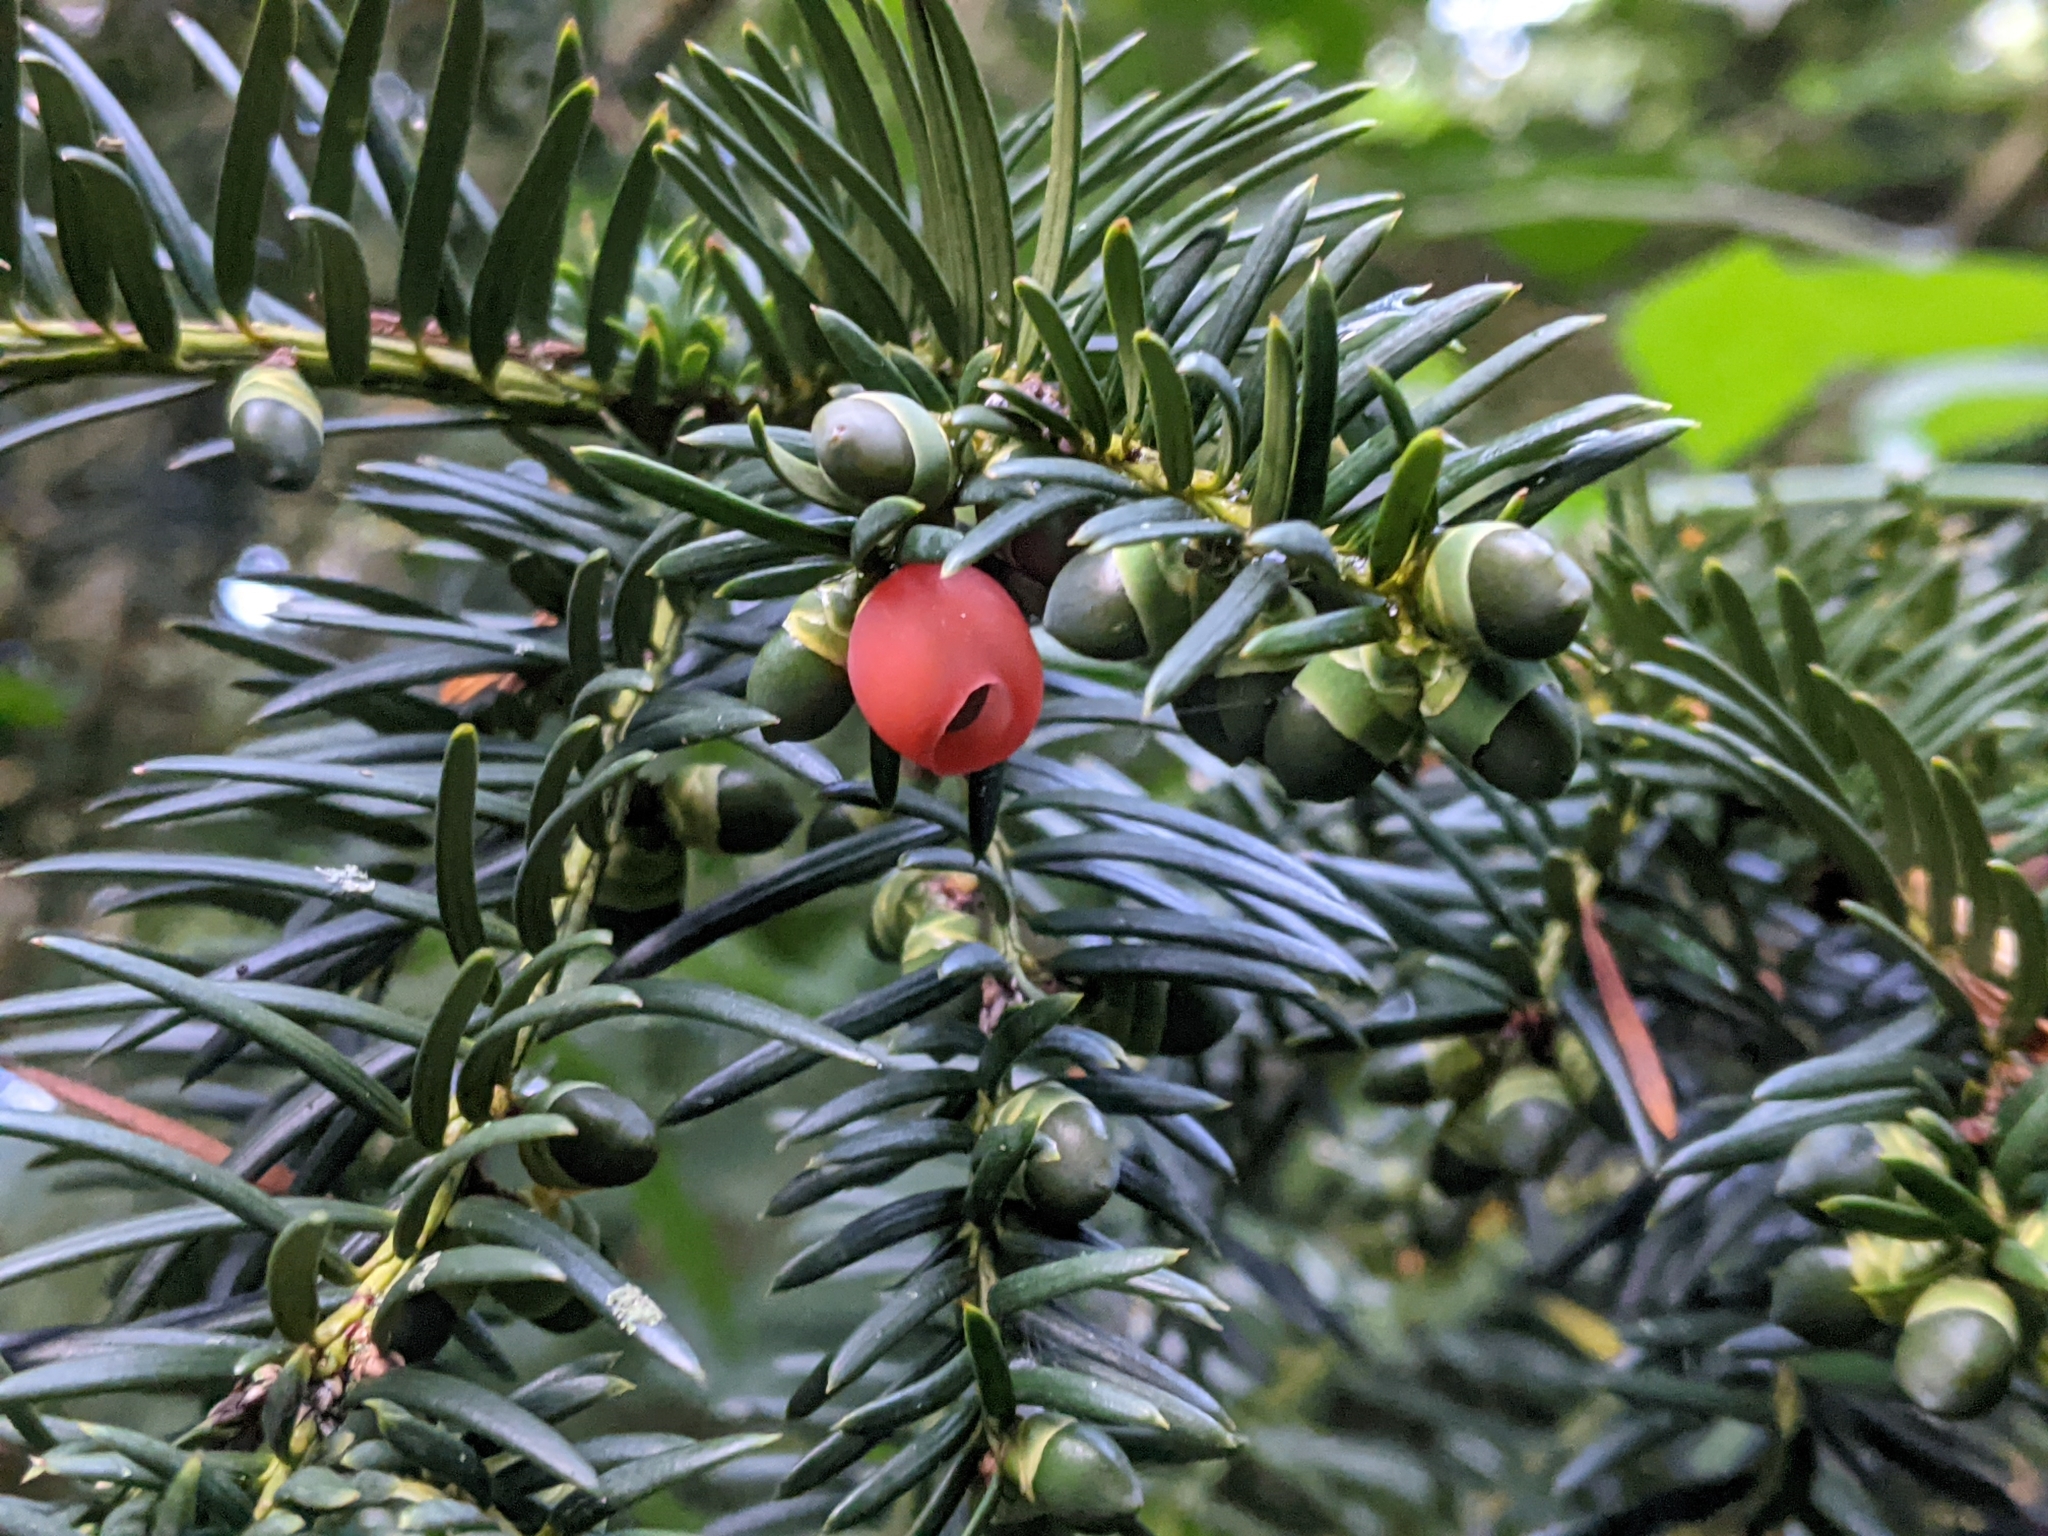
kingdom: Plantae
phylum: Tracheophyta
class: Pinopsida
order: Pinales
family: Taxaceae
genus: Taxus
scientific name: Taxus baccata
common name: Yew
